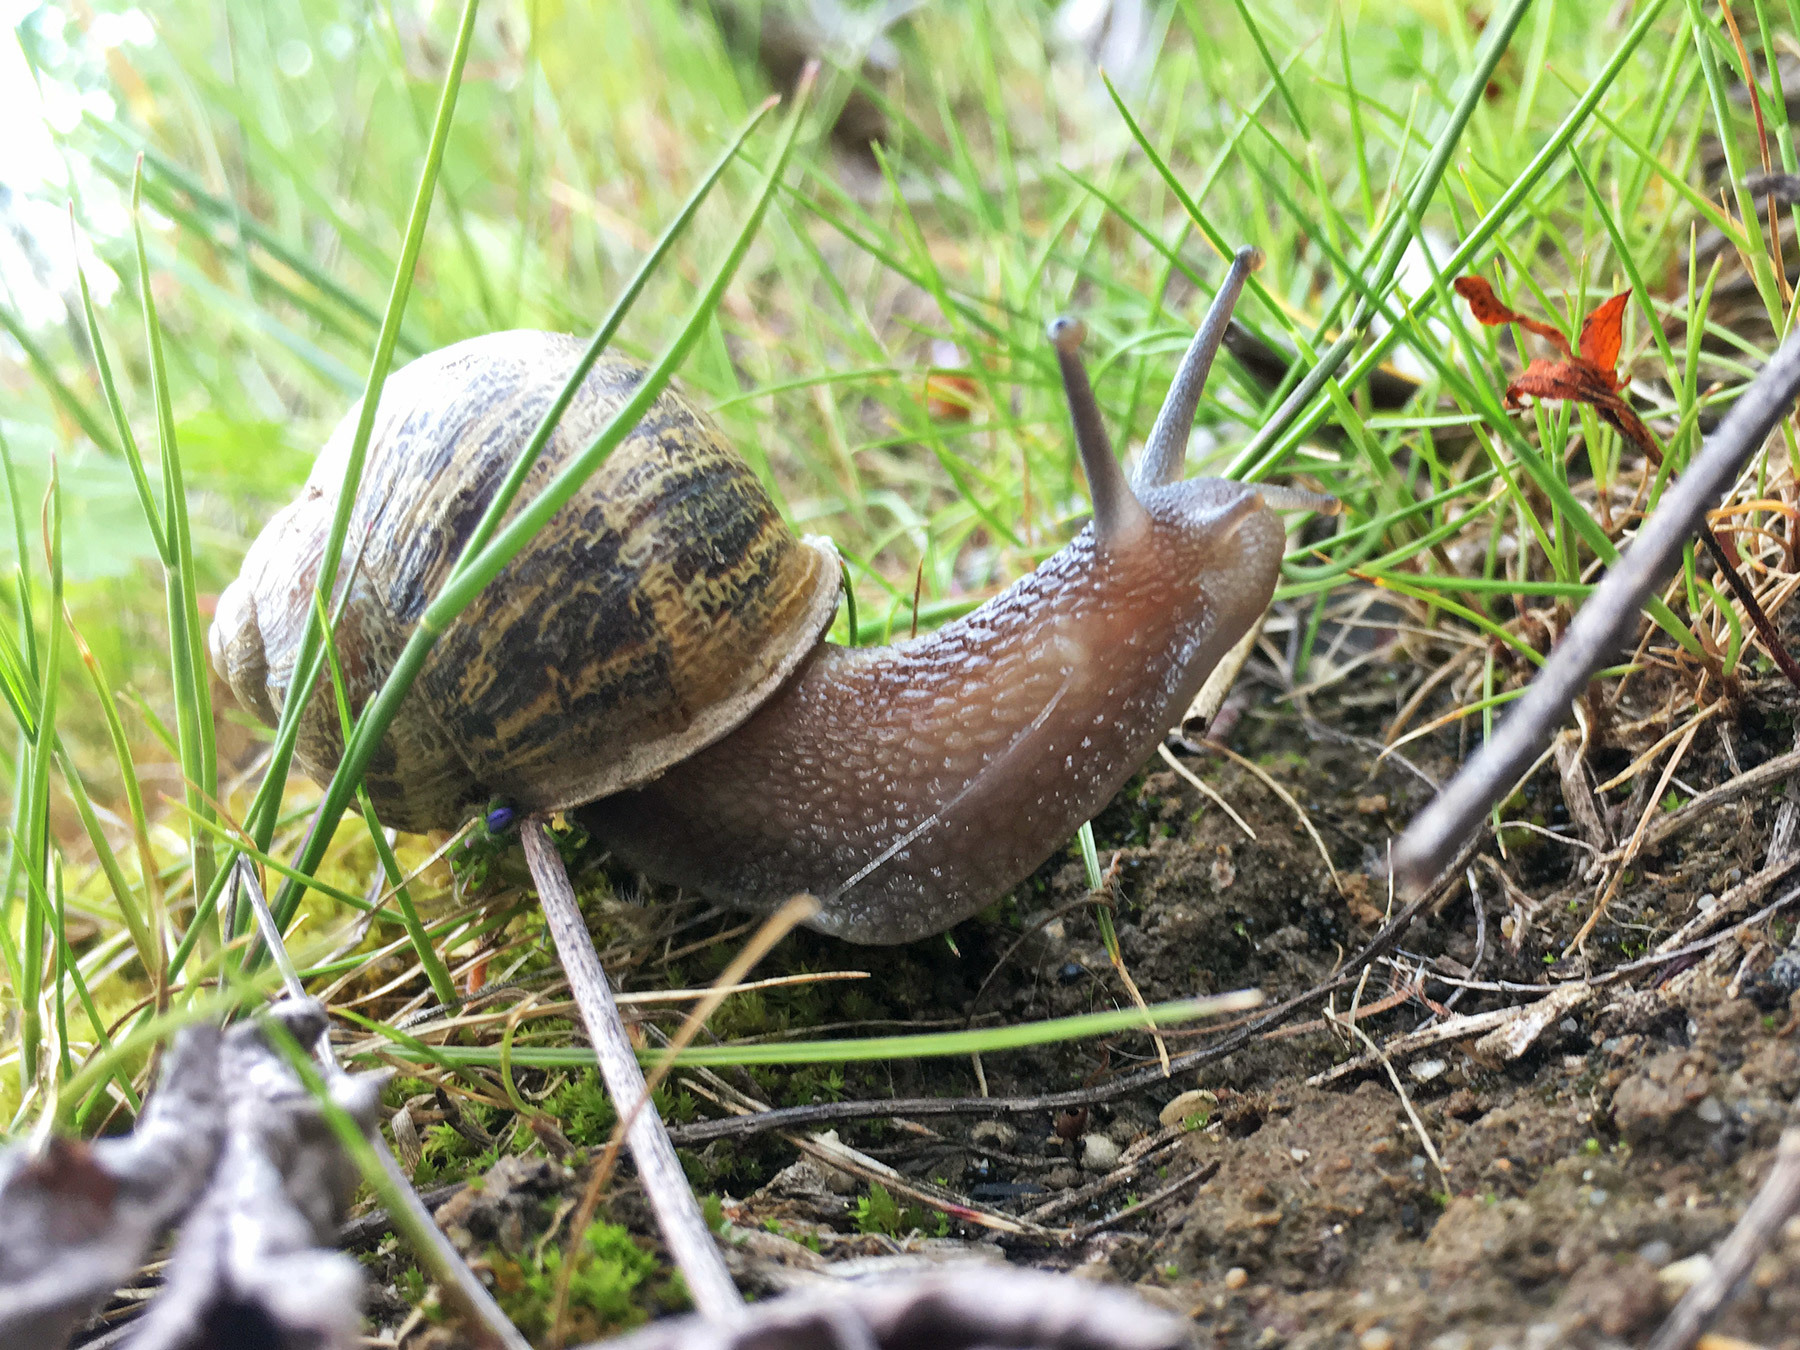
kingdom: Animalia
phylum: Mollusca
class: Gastropoda
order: Stylommatophora
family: Helicidae
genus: Cornu
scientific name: Cornu aspersum
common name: Brown garden snail
